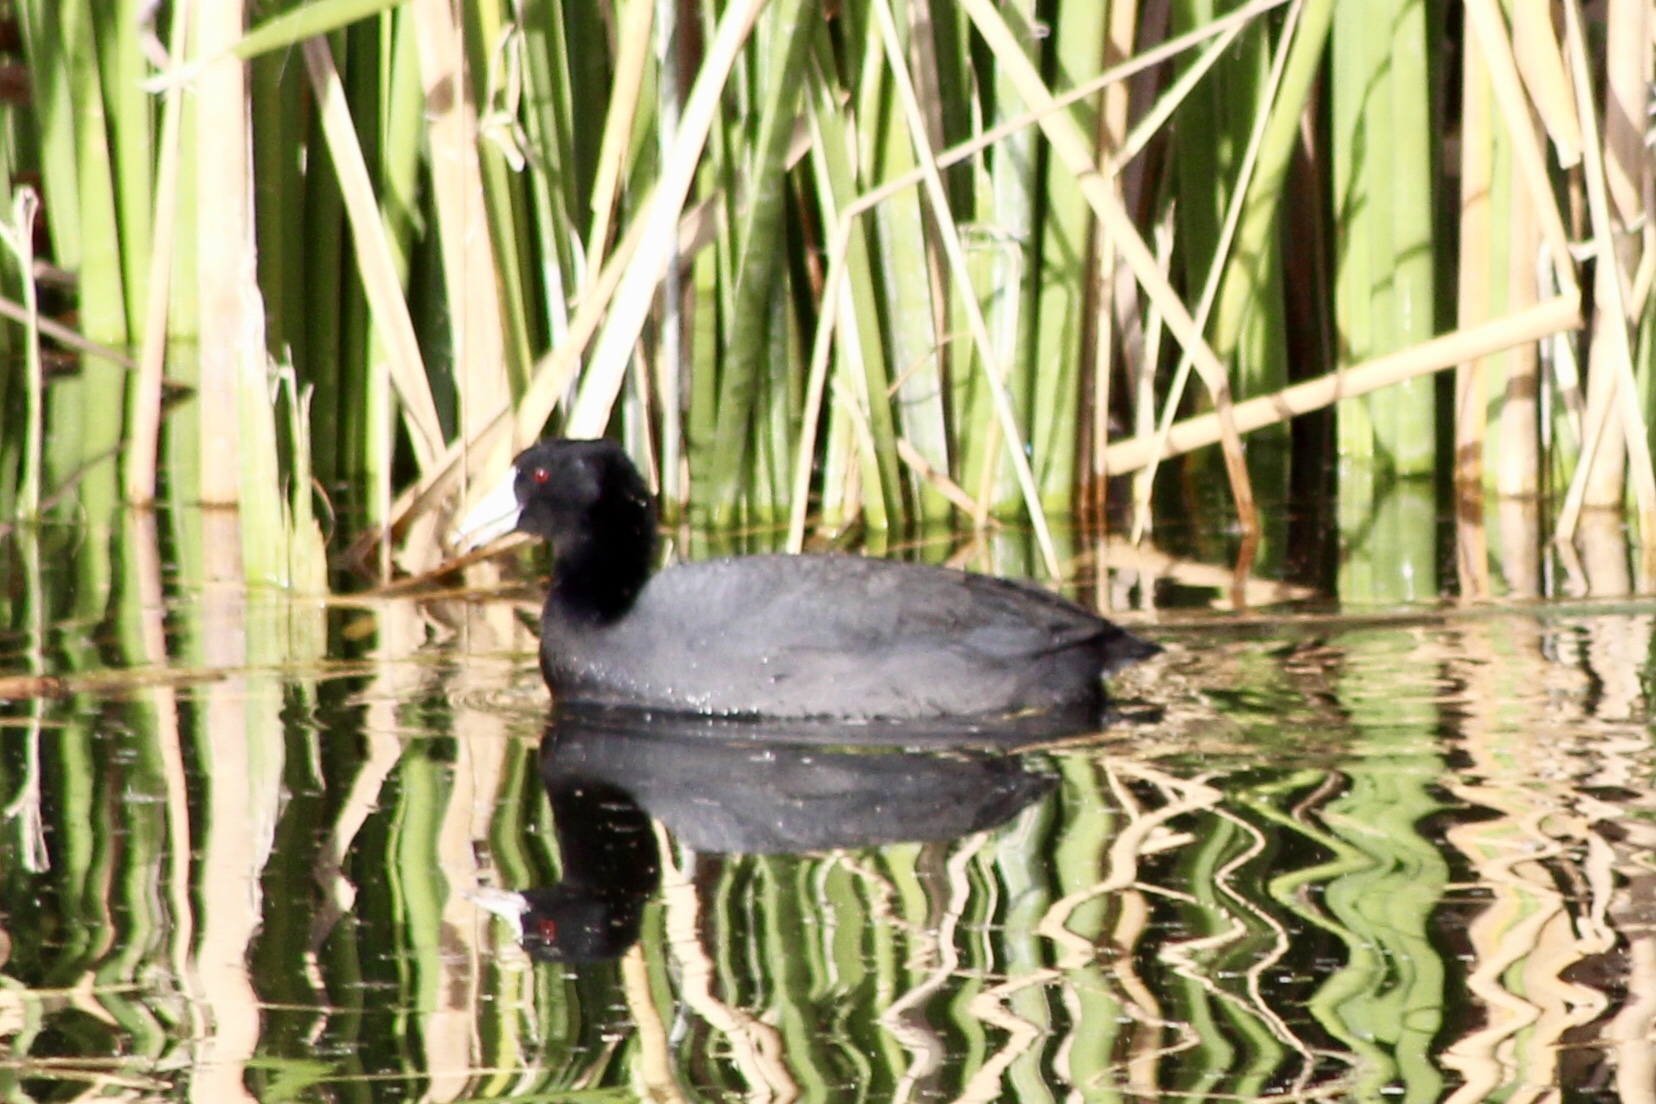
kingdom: Animalia
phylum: Chordata
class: Aves
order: Gruiformes
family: Rallidae
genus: Fulica
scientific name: Fulica americana
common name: American coot
